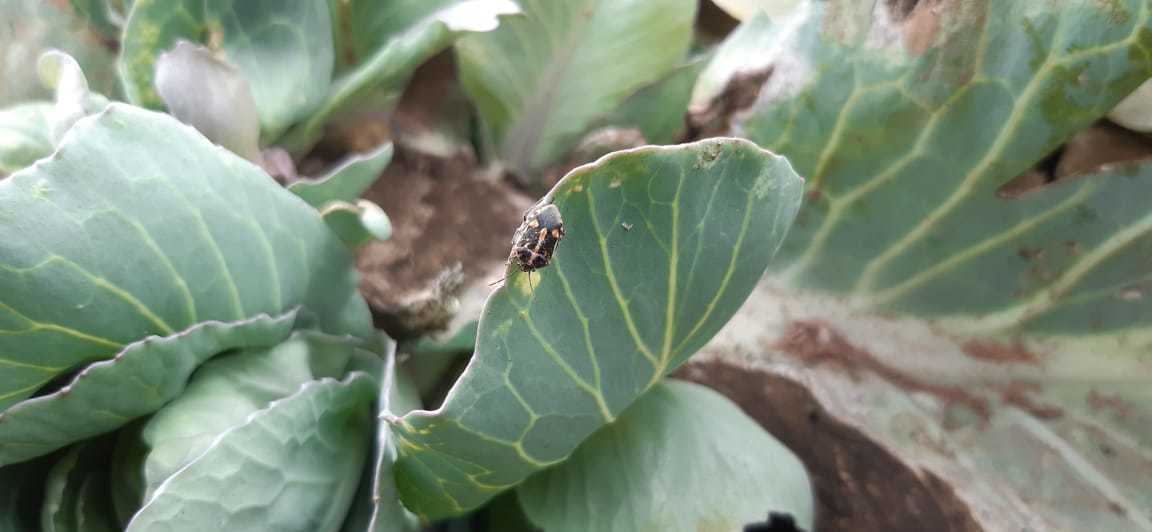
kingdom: Animalia
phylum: Arthropoda
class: Insecta
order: Hemiptera
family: Pentatomidae
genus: Bagrada
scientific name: Bagrada hilaris
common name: Bagrada bug
